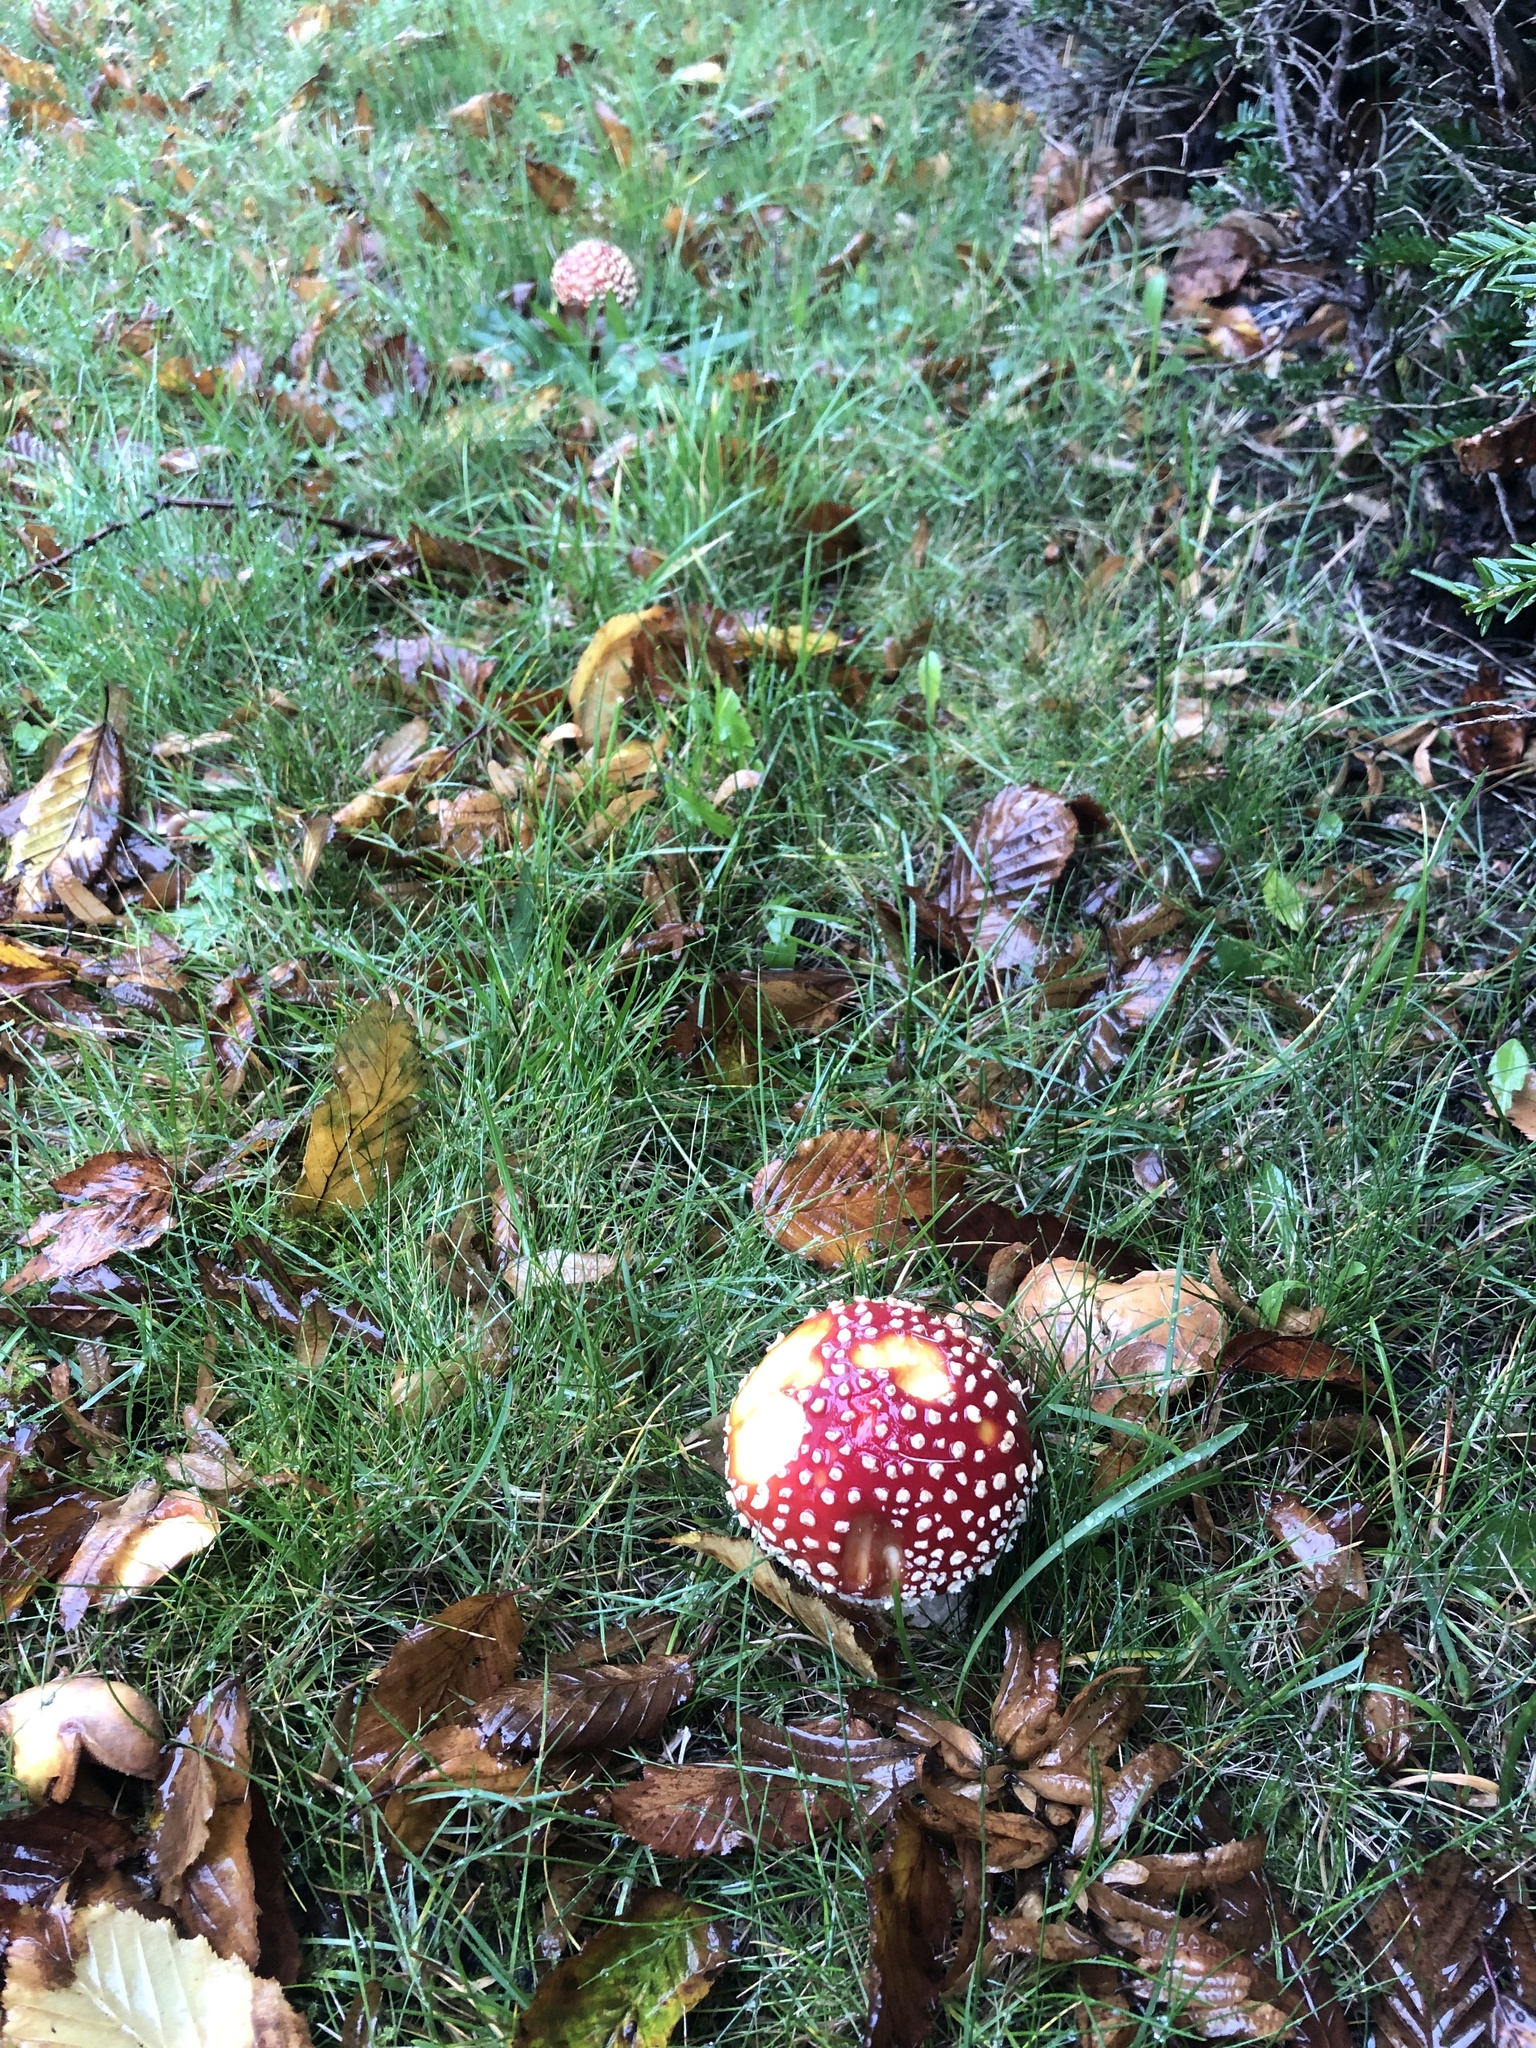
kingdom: Fungi
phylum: Basidiomycota
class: Agaricomycetes
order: Agaricales
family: Amanitaceae
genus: Amanita
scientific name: Amanita muscaria
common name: Fly agaric
